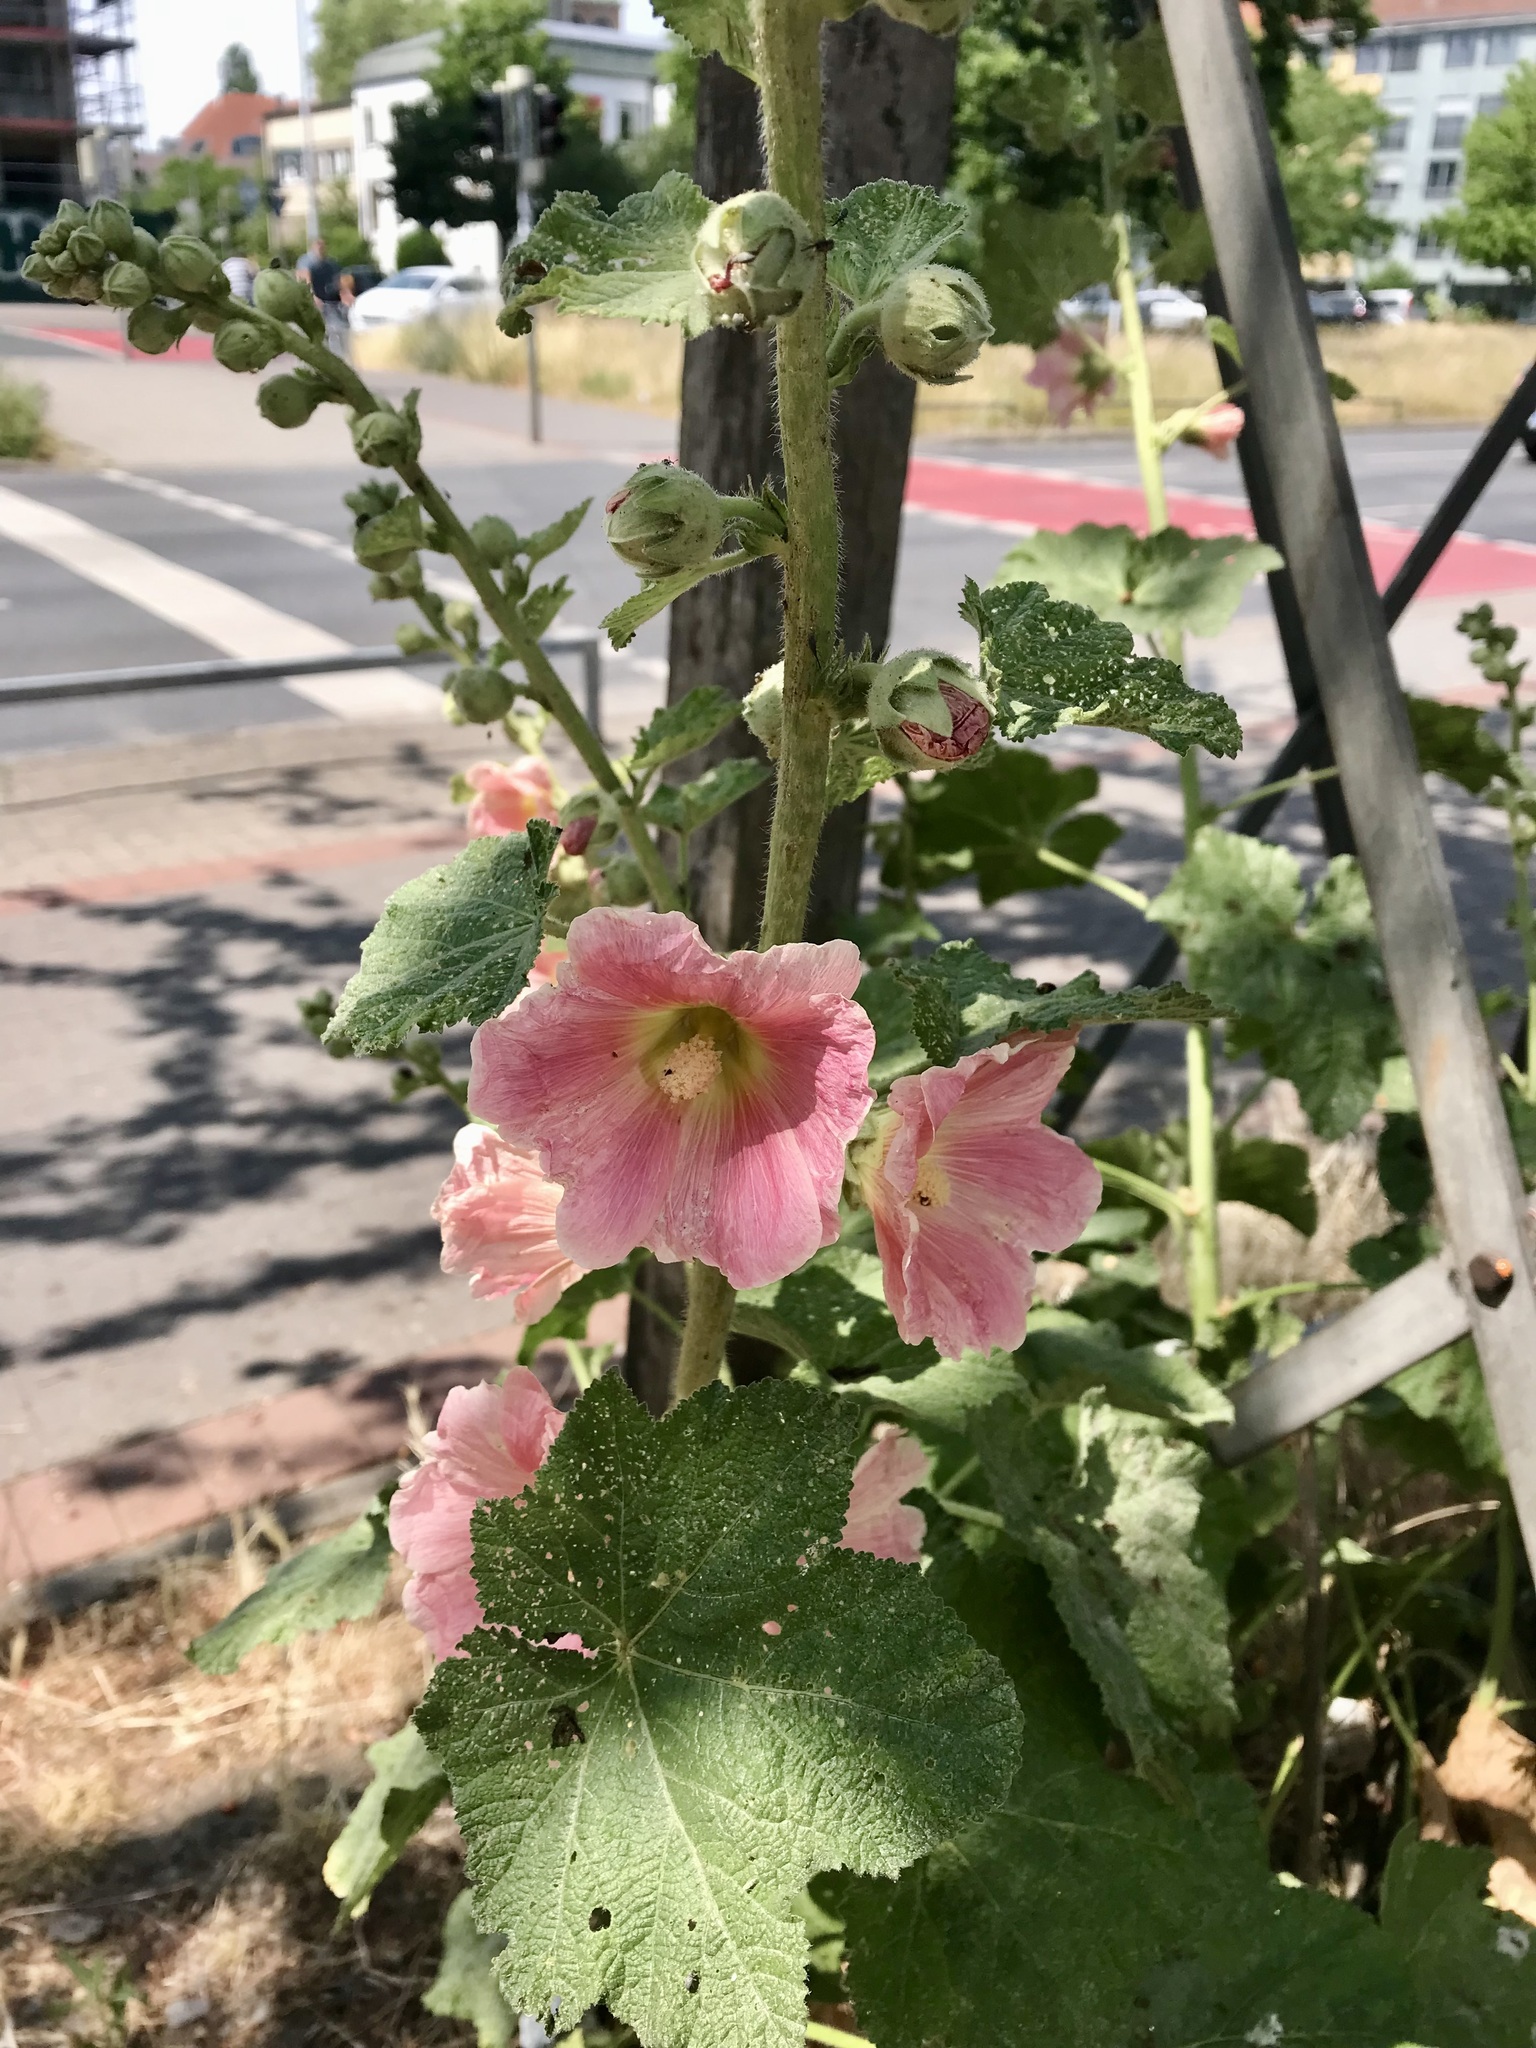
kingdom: Plantae
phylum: Tracheophyta
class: Magnoliopsida
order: Malvales
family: Malvaceae
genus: Alcea
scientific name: Alcea rosea
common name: Hollyhock
